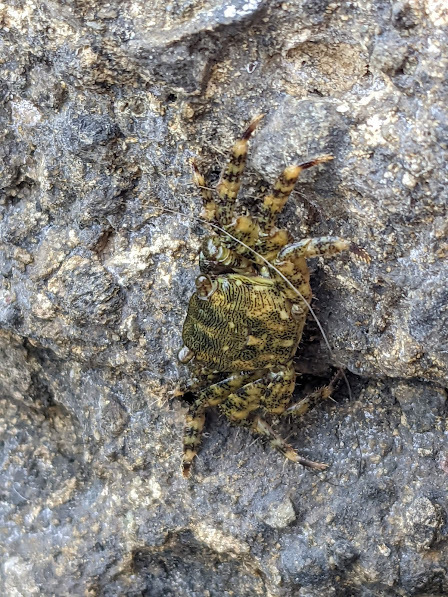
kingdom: Animalia
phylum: Arthropoda
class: Malacostraca
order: Decapoda
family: Grapsidae
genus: Pachygrapsus
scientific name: Pachygrapsus marmoratus
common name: Marbled rock crab
